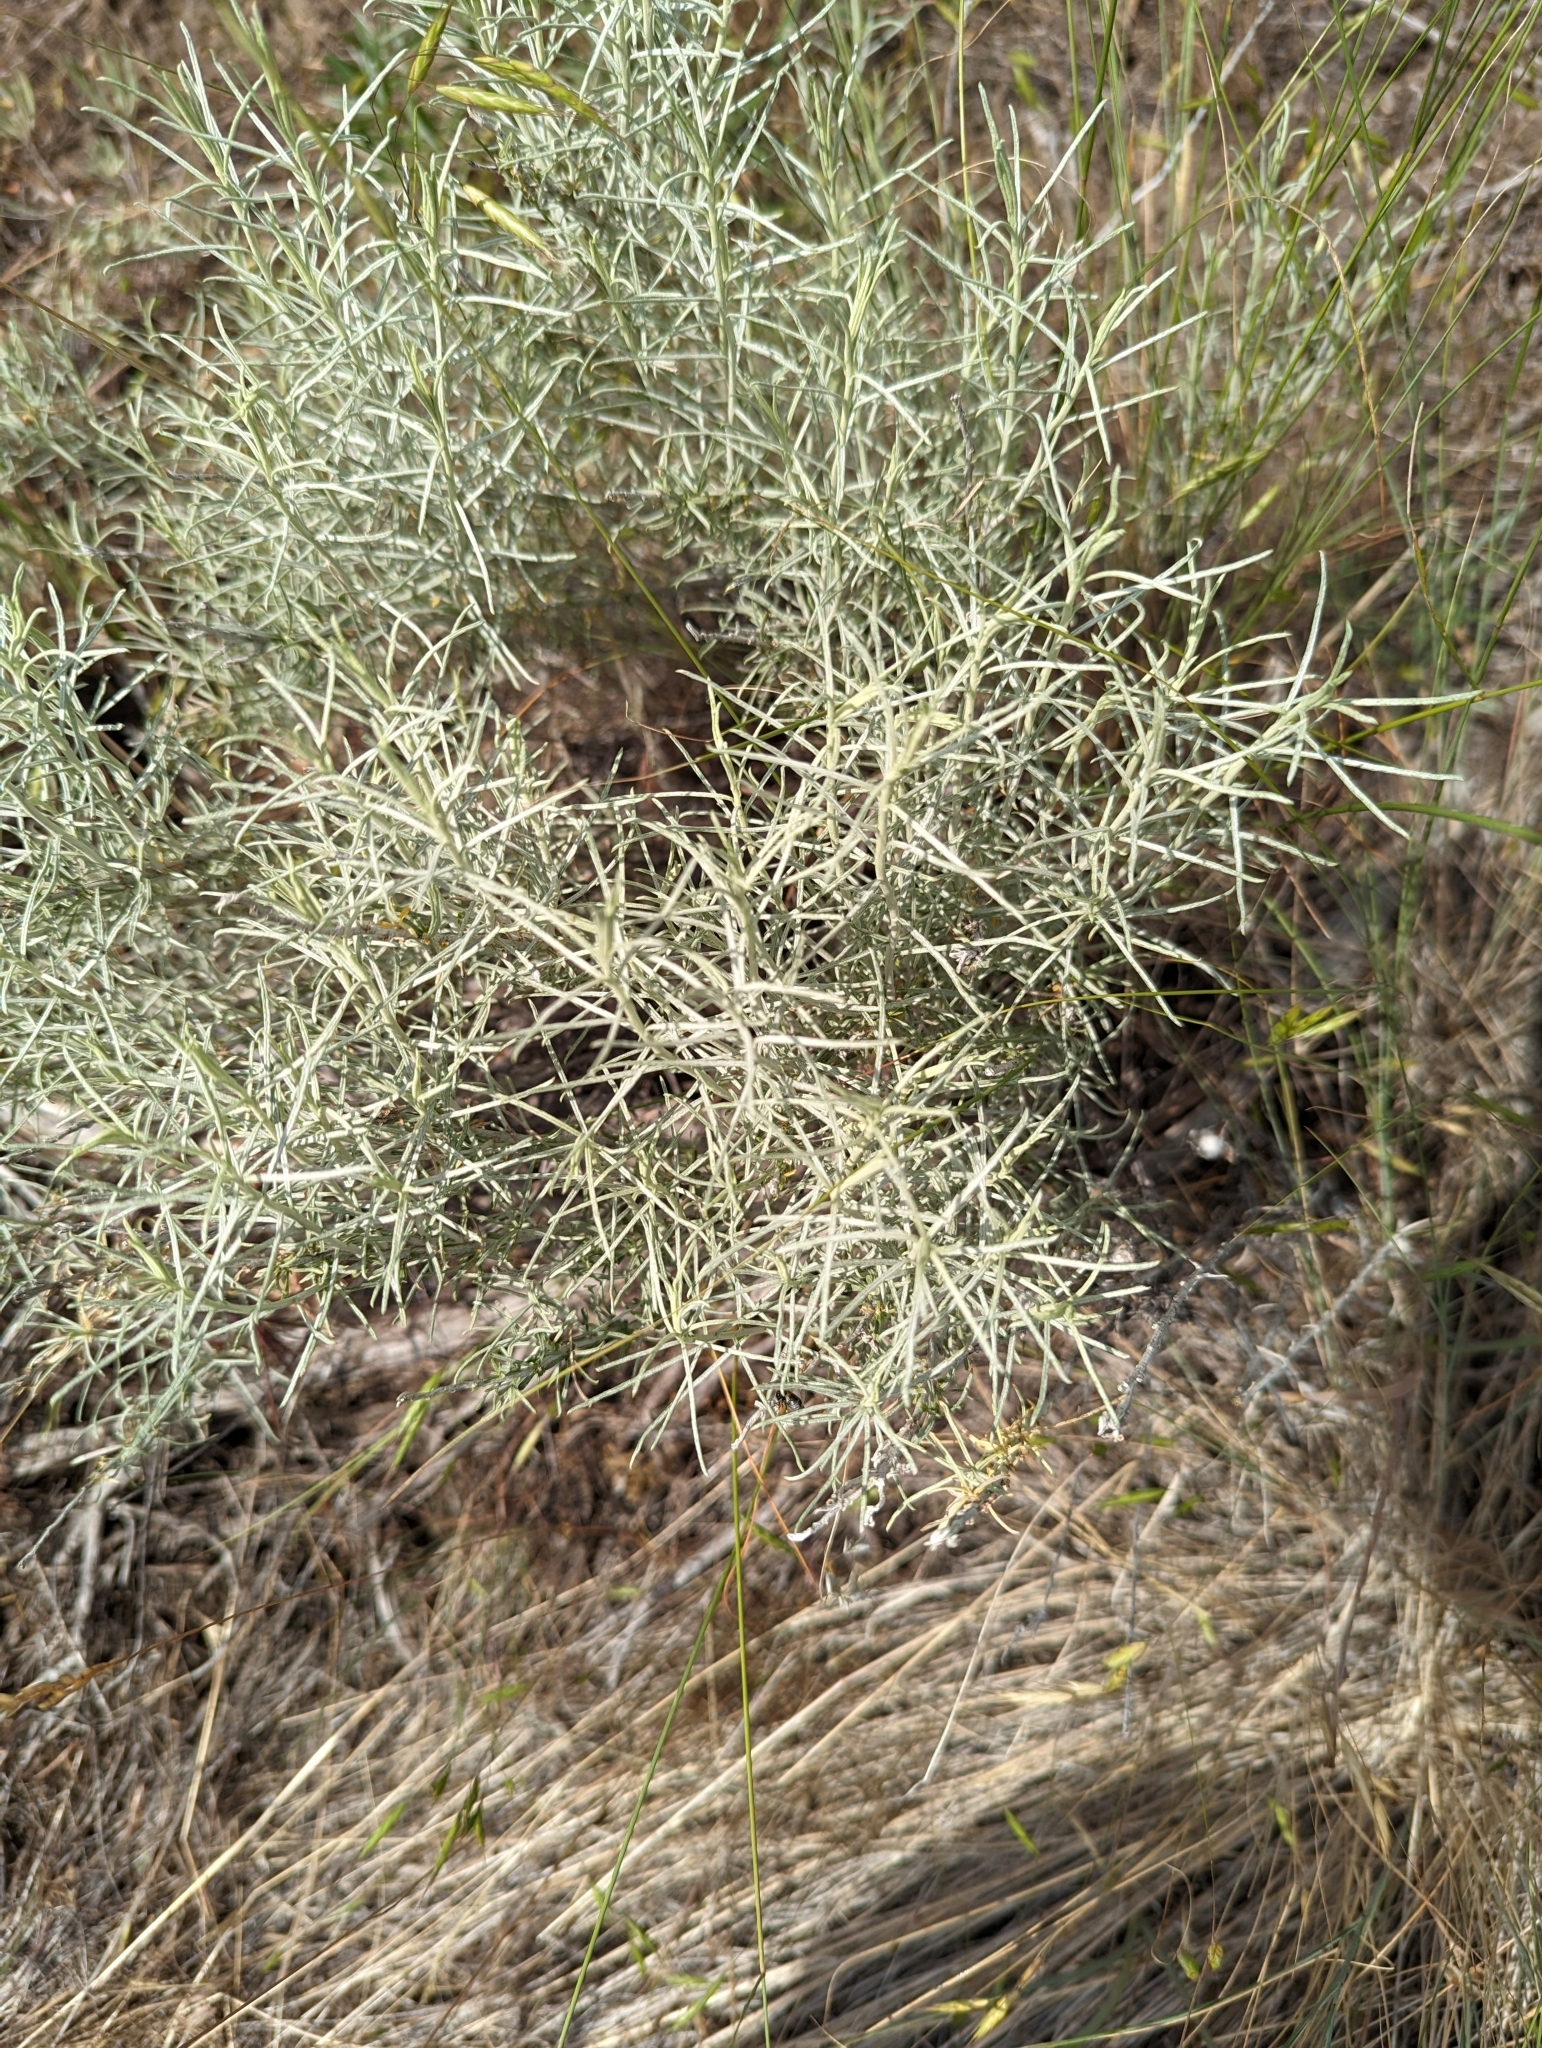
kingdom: Plantae
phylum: Tracheophyta
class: Magnoliopsida
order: Asterales
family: Asteraceae
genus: Ericameria
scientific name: Ericameria nauseosa
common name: Rubber rabbitbrush
